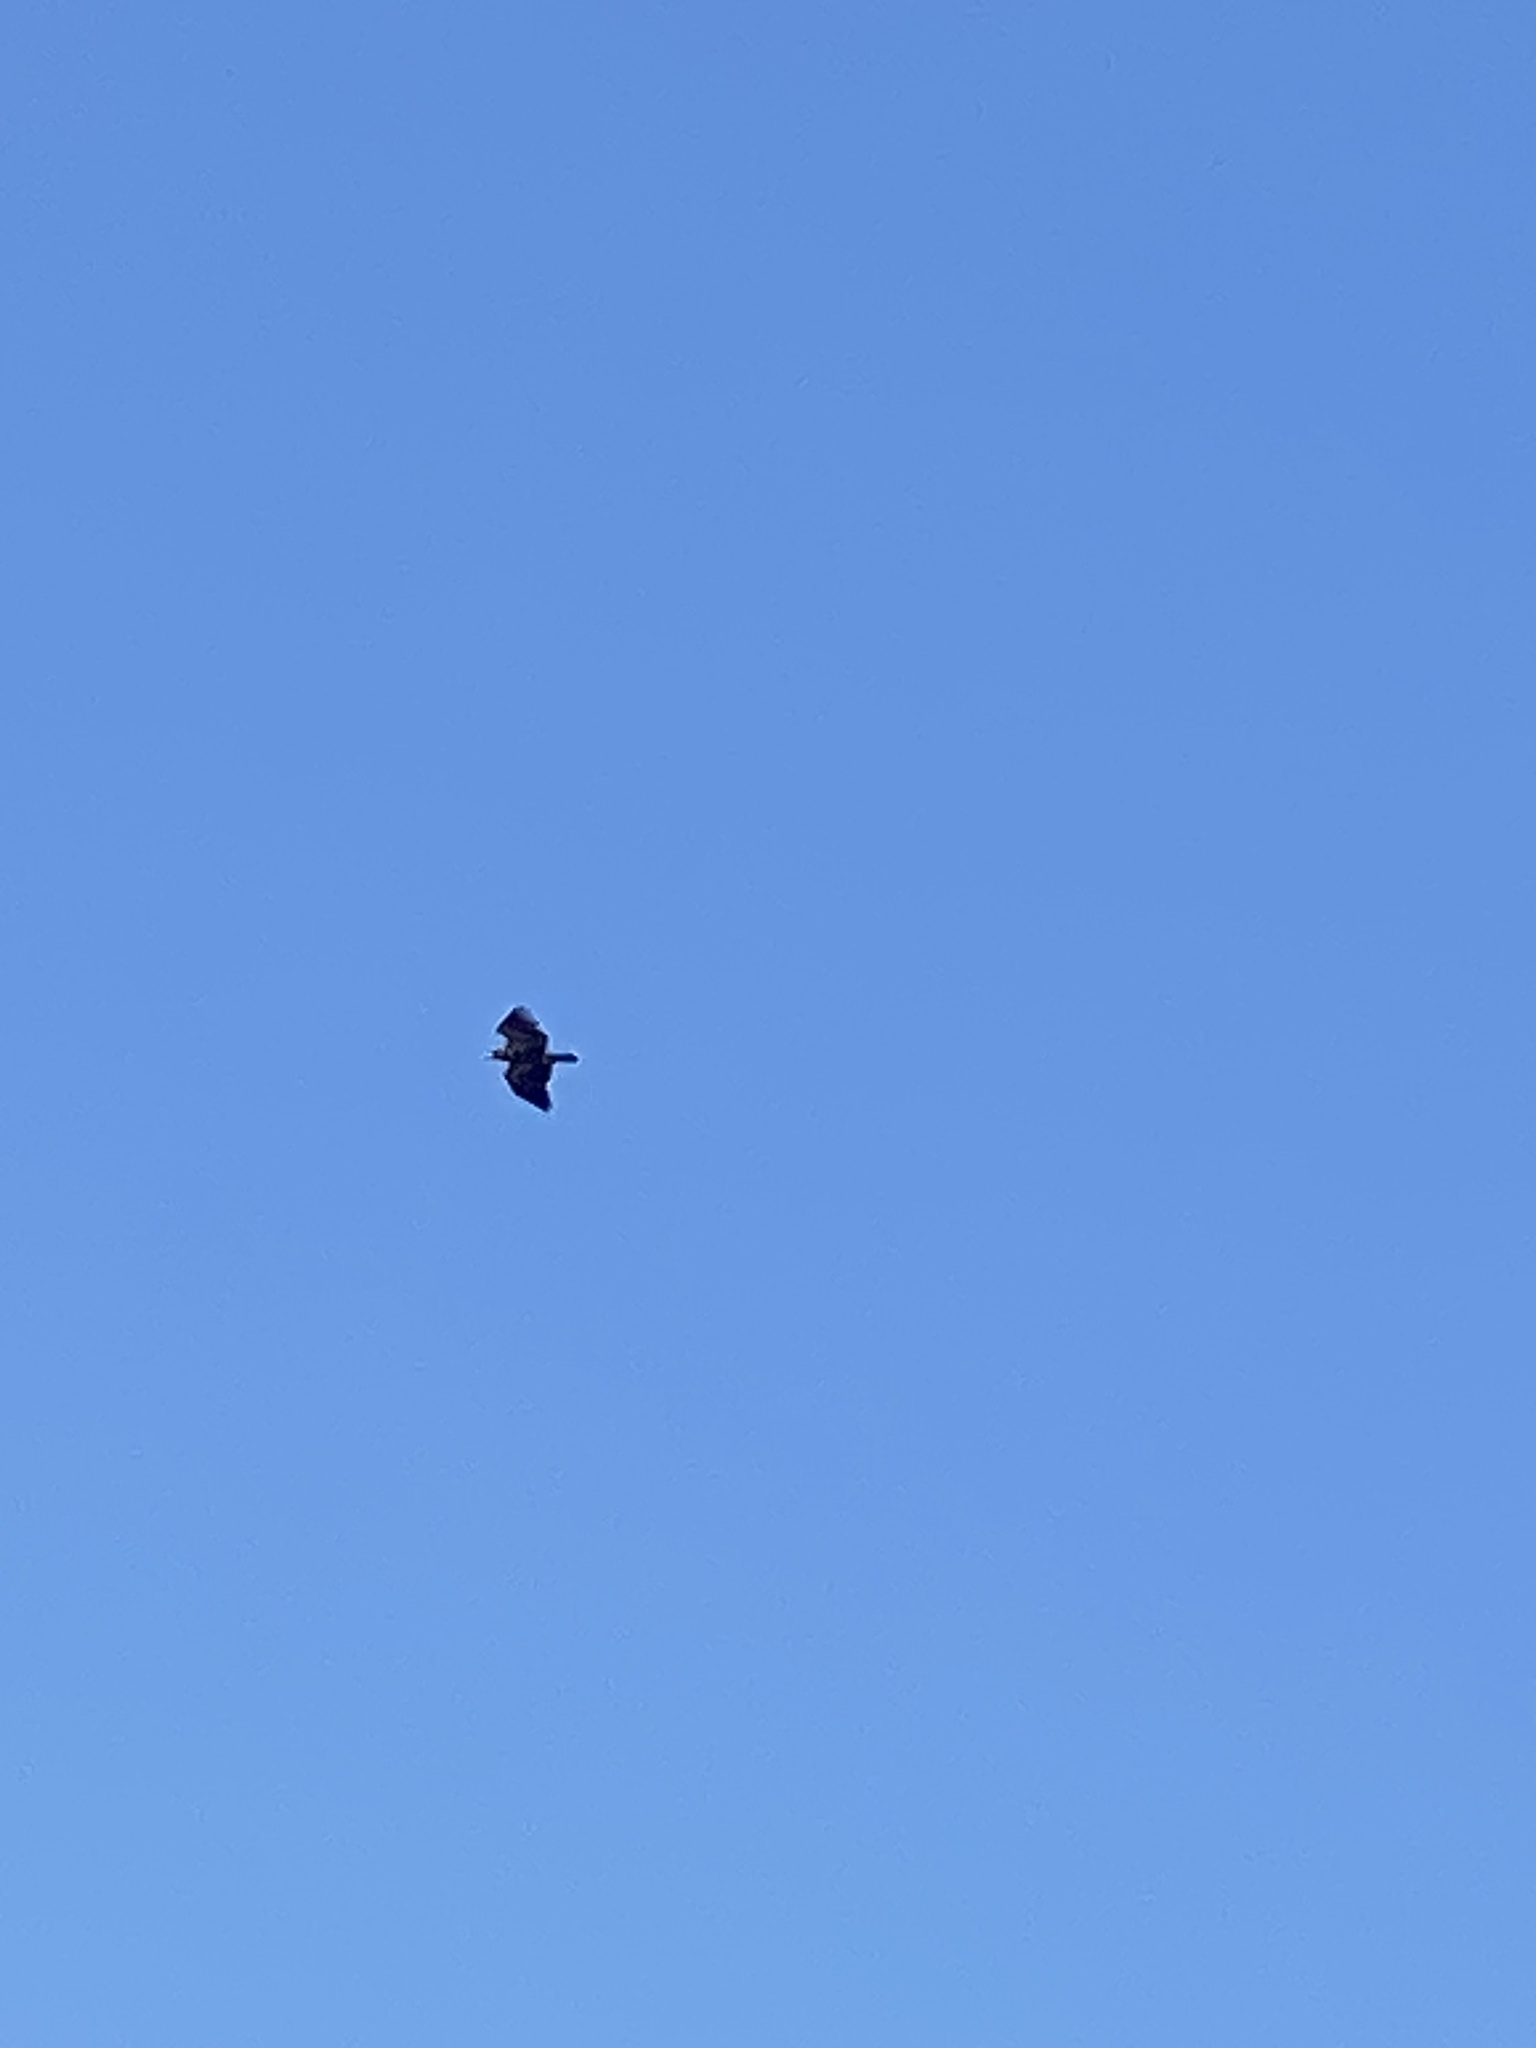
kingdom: Animalia
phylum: Chordata
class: Aves
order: Accipitriformes
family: Accipitridae
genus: Haliaeetus
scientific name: Haliaeetus leucocephalus
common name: Bald eagle
